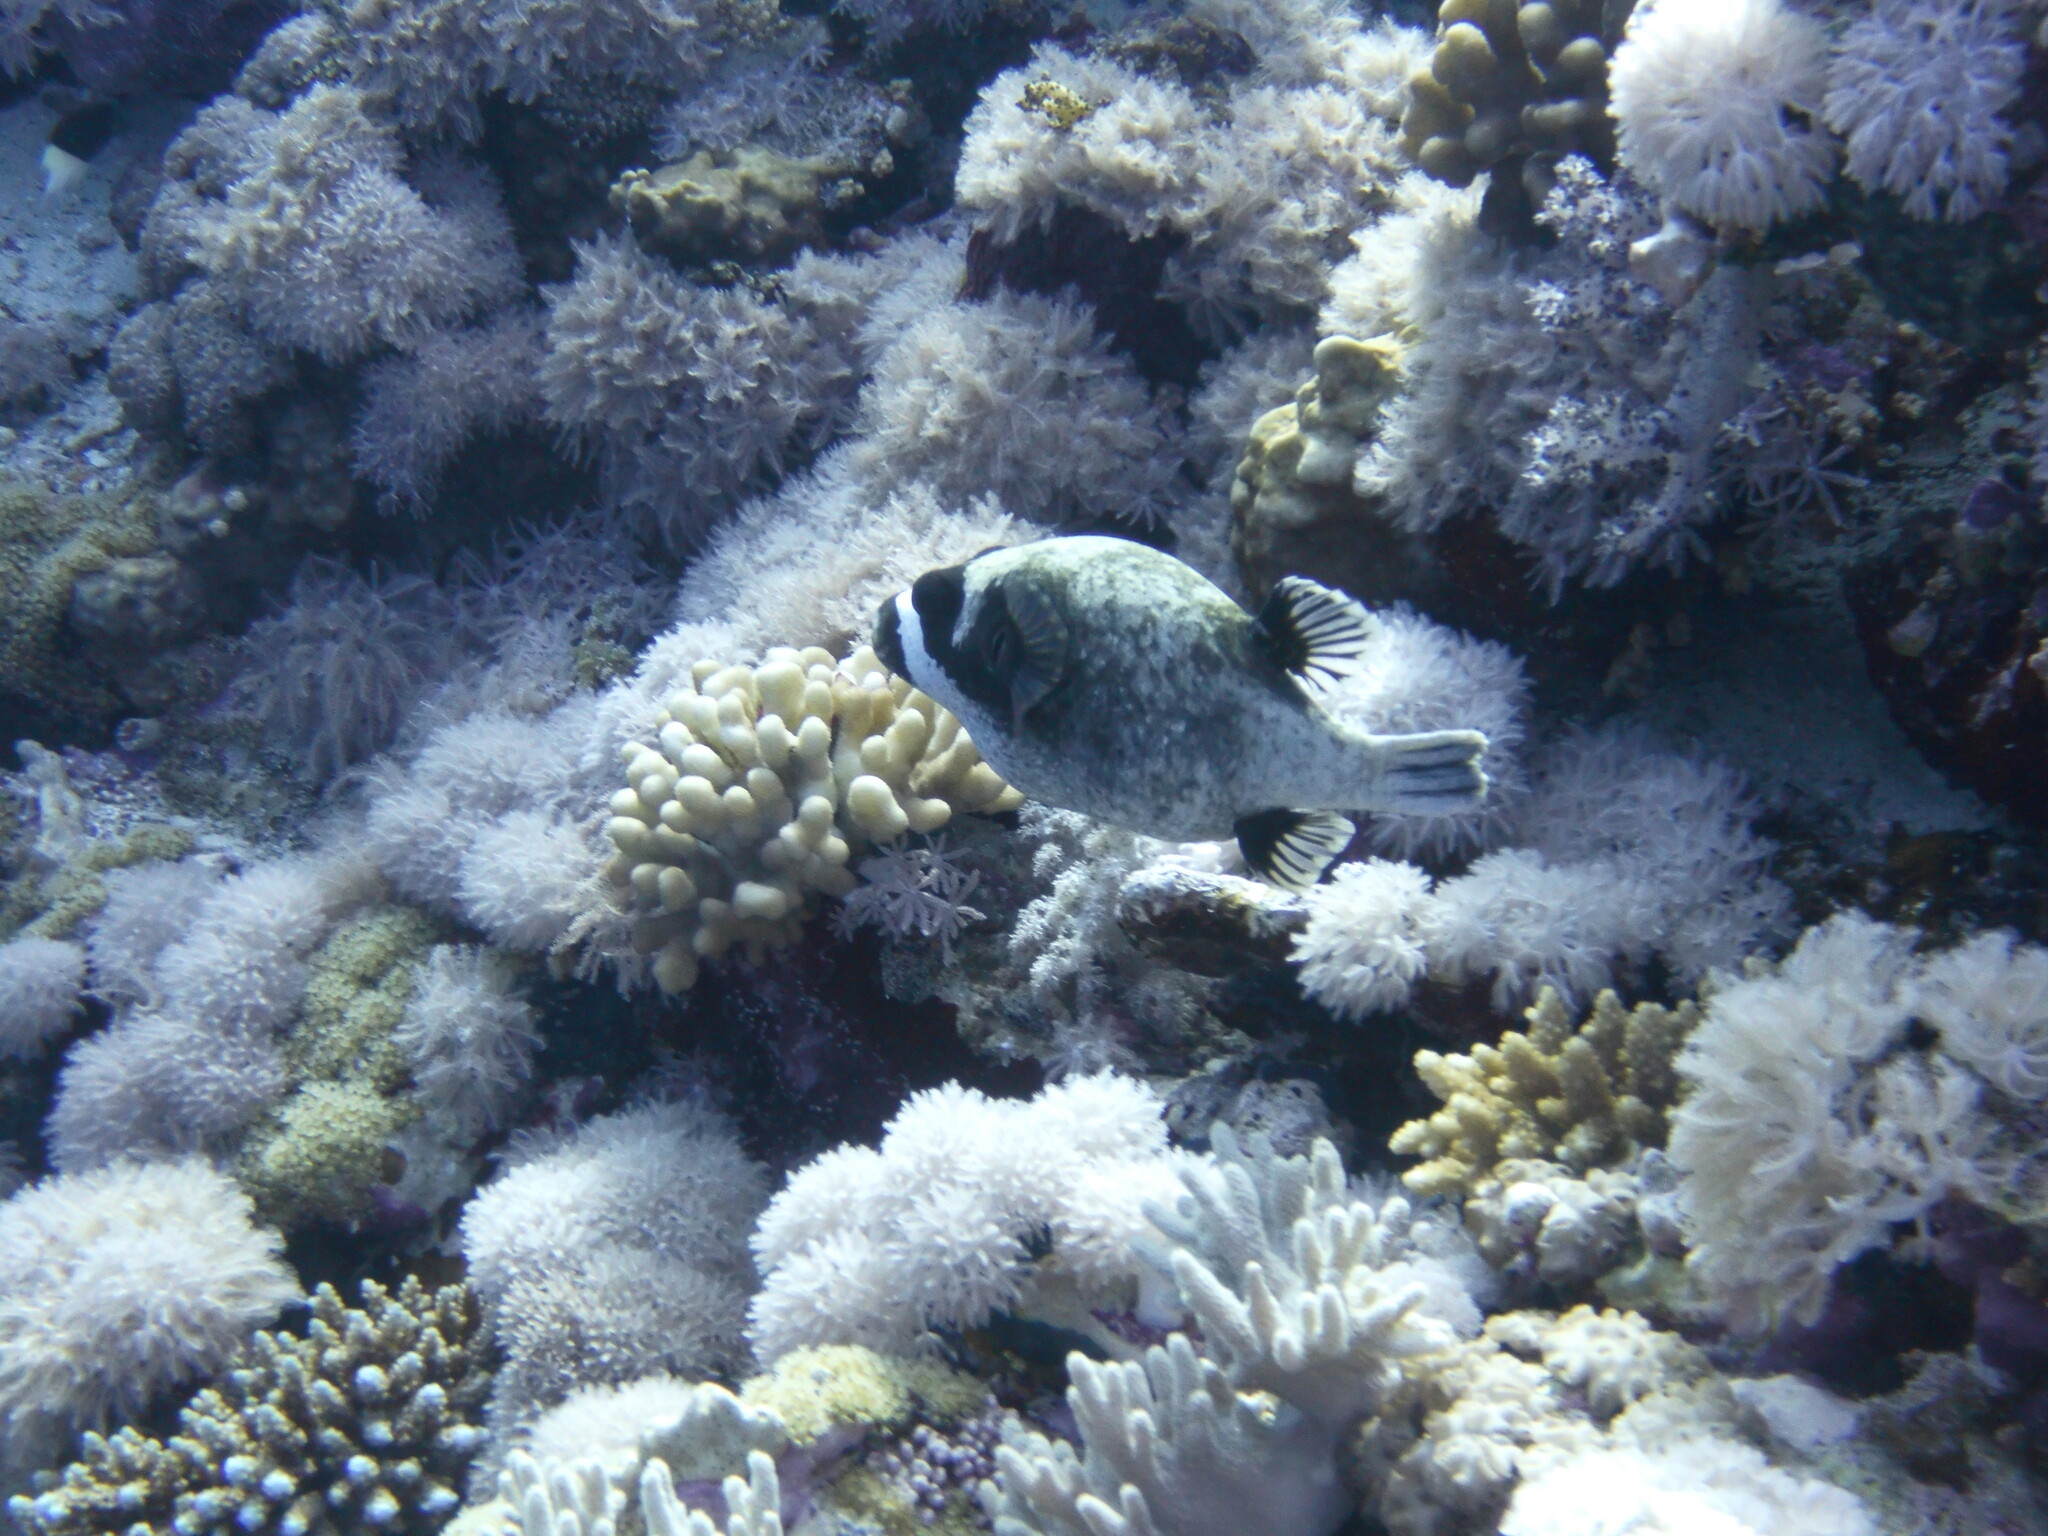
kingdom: Animalia
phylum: Chordata
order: Tetraodontiformes
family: Tetraodontidae
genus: Arothron
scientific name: Arothron diadematus
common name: Masked puffer
